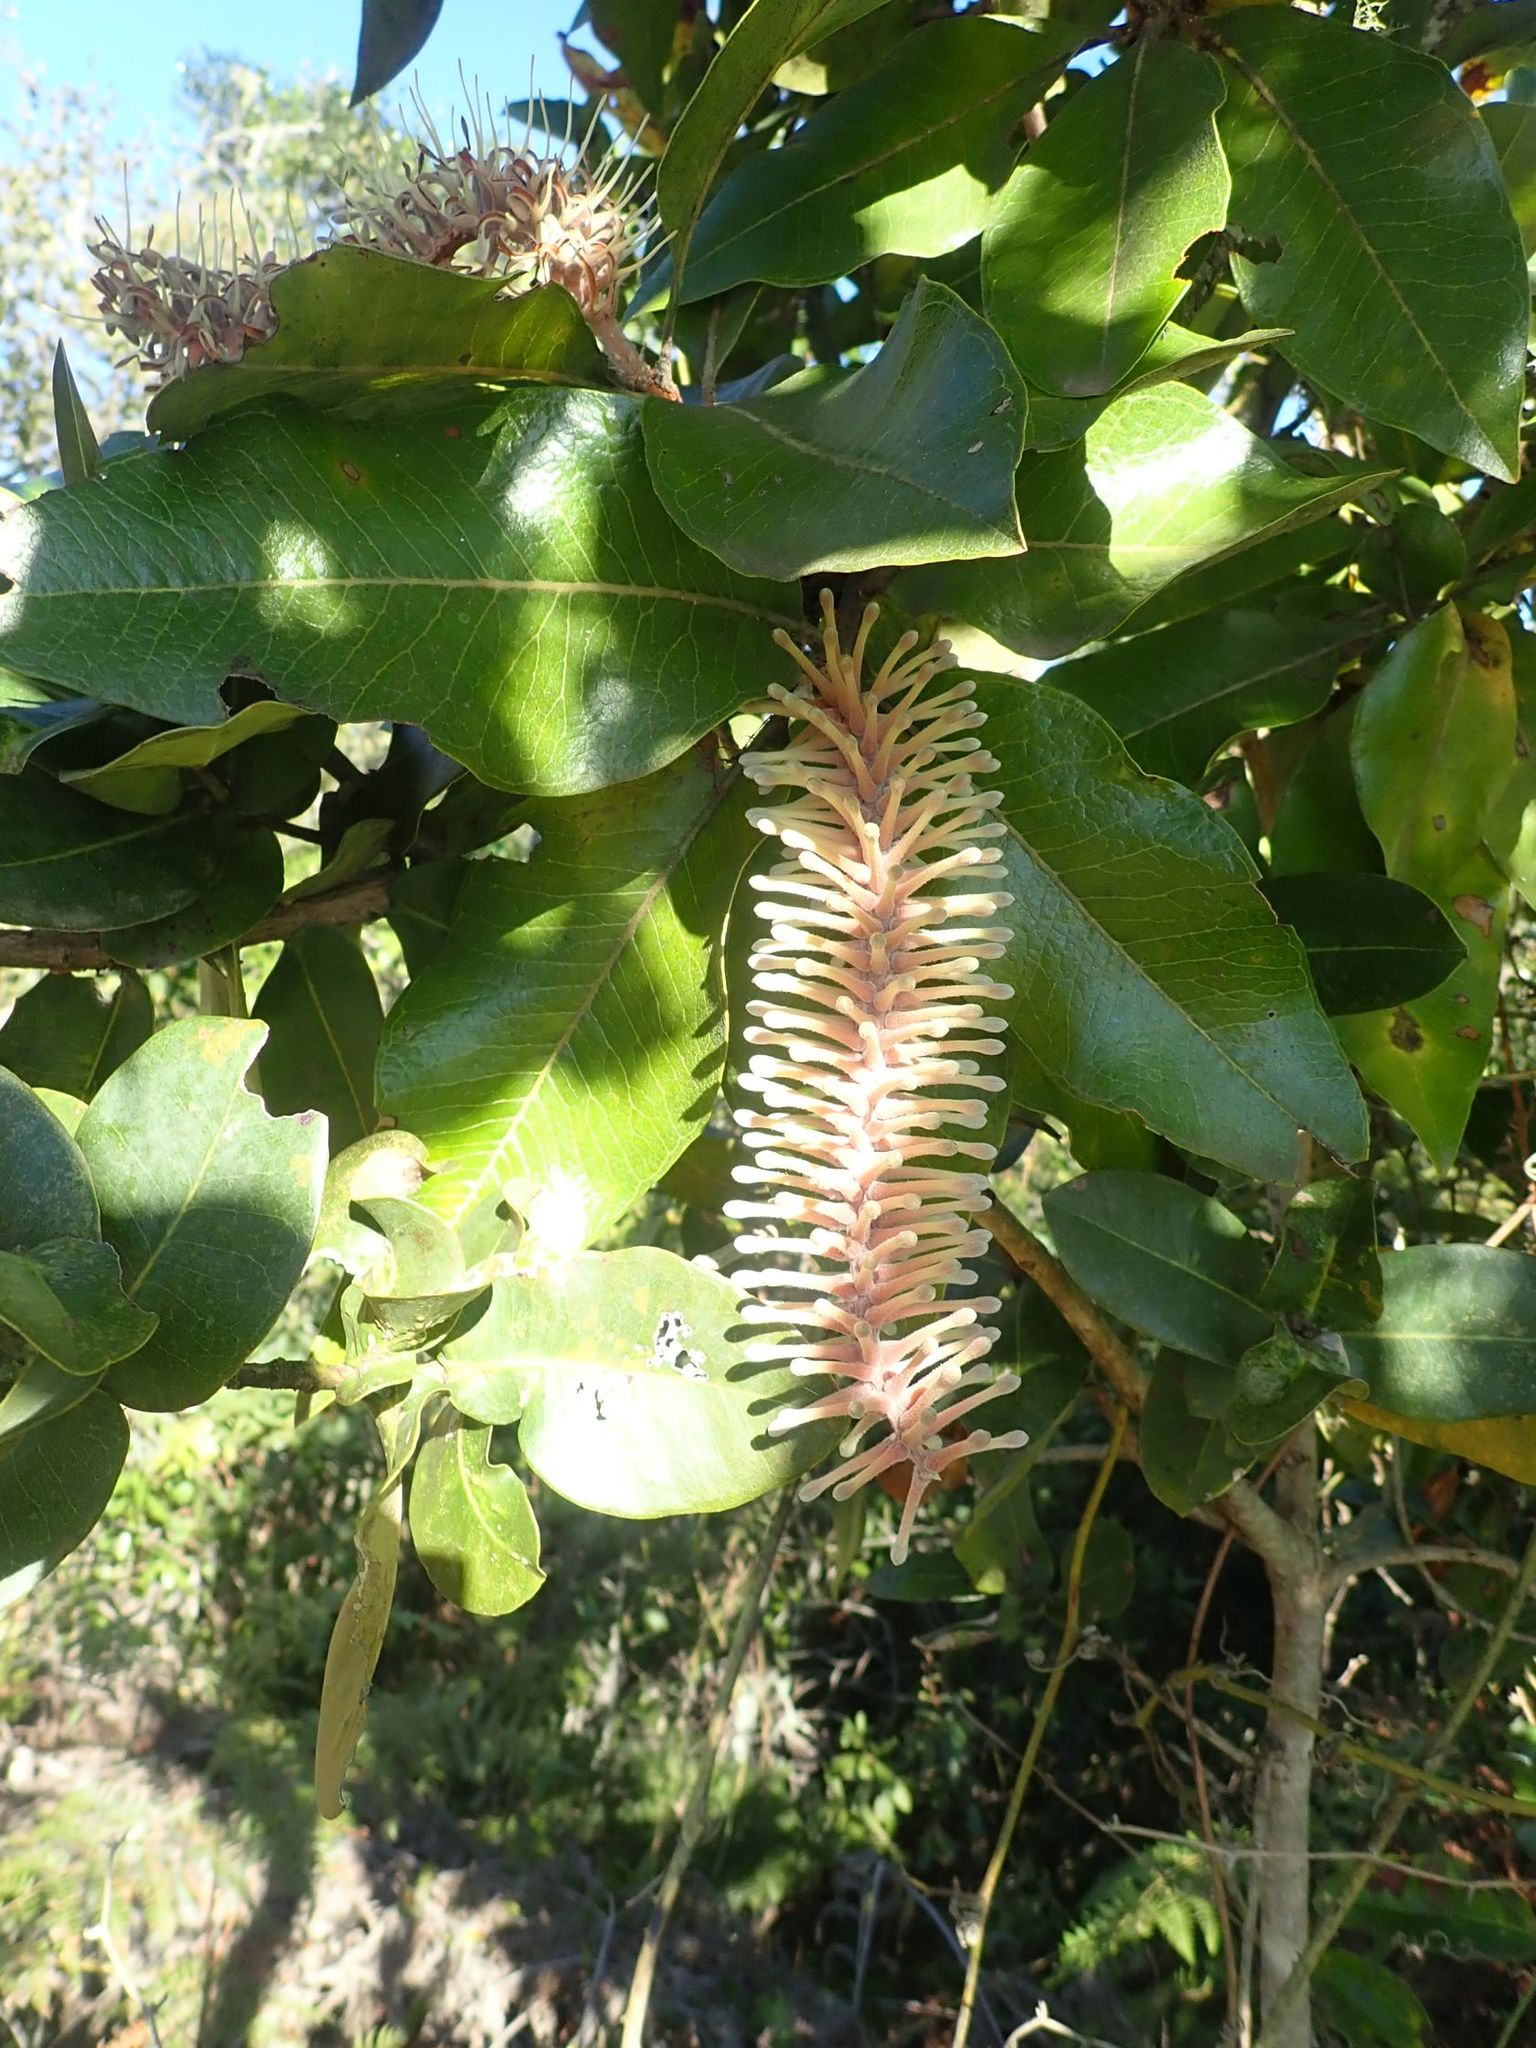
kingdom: Plantae
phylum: Tracheophyta
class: Magnoliopsida
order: Proteales
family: Proteaceae
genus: Faurea
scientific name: Faurea rochetiana
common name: Broad-leaved beech
